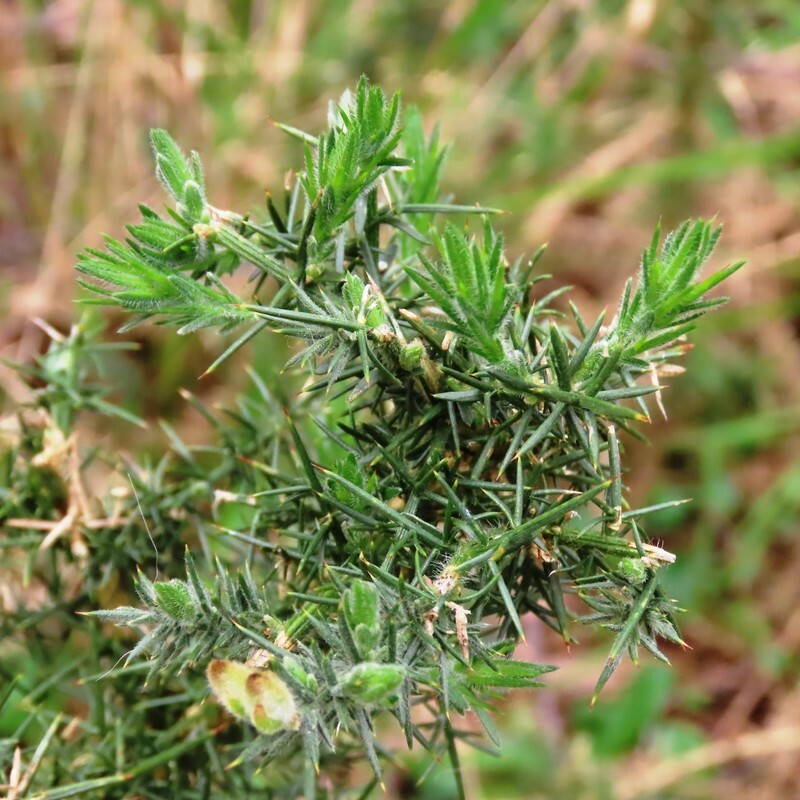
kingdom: Plantae
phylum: Tracheophyta
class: Magnoliopsida
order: Fabales
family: Fabaceae
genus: Ulex
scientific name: Ulex europaeus
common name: Common gorse
